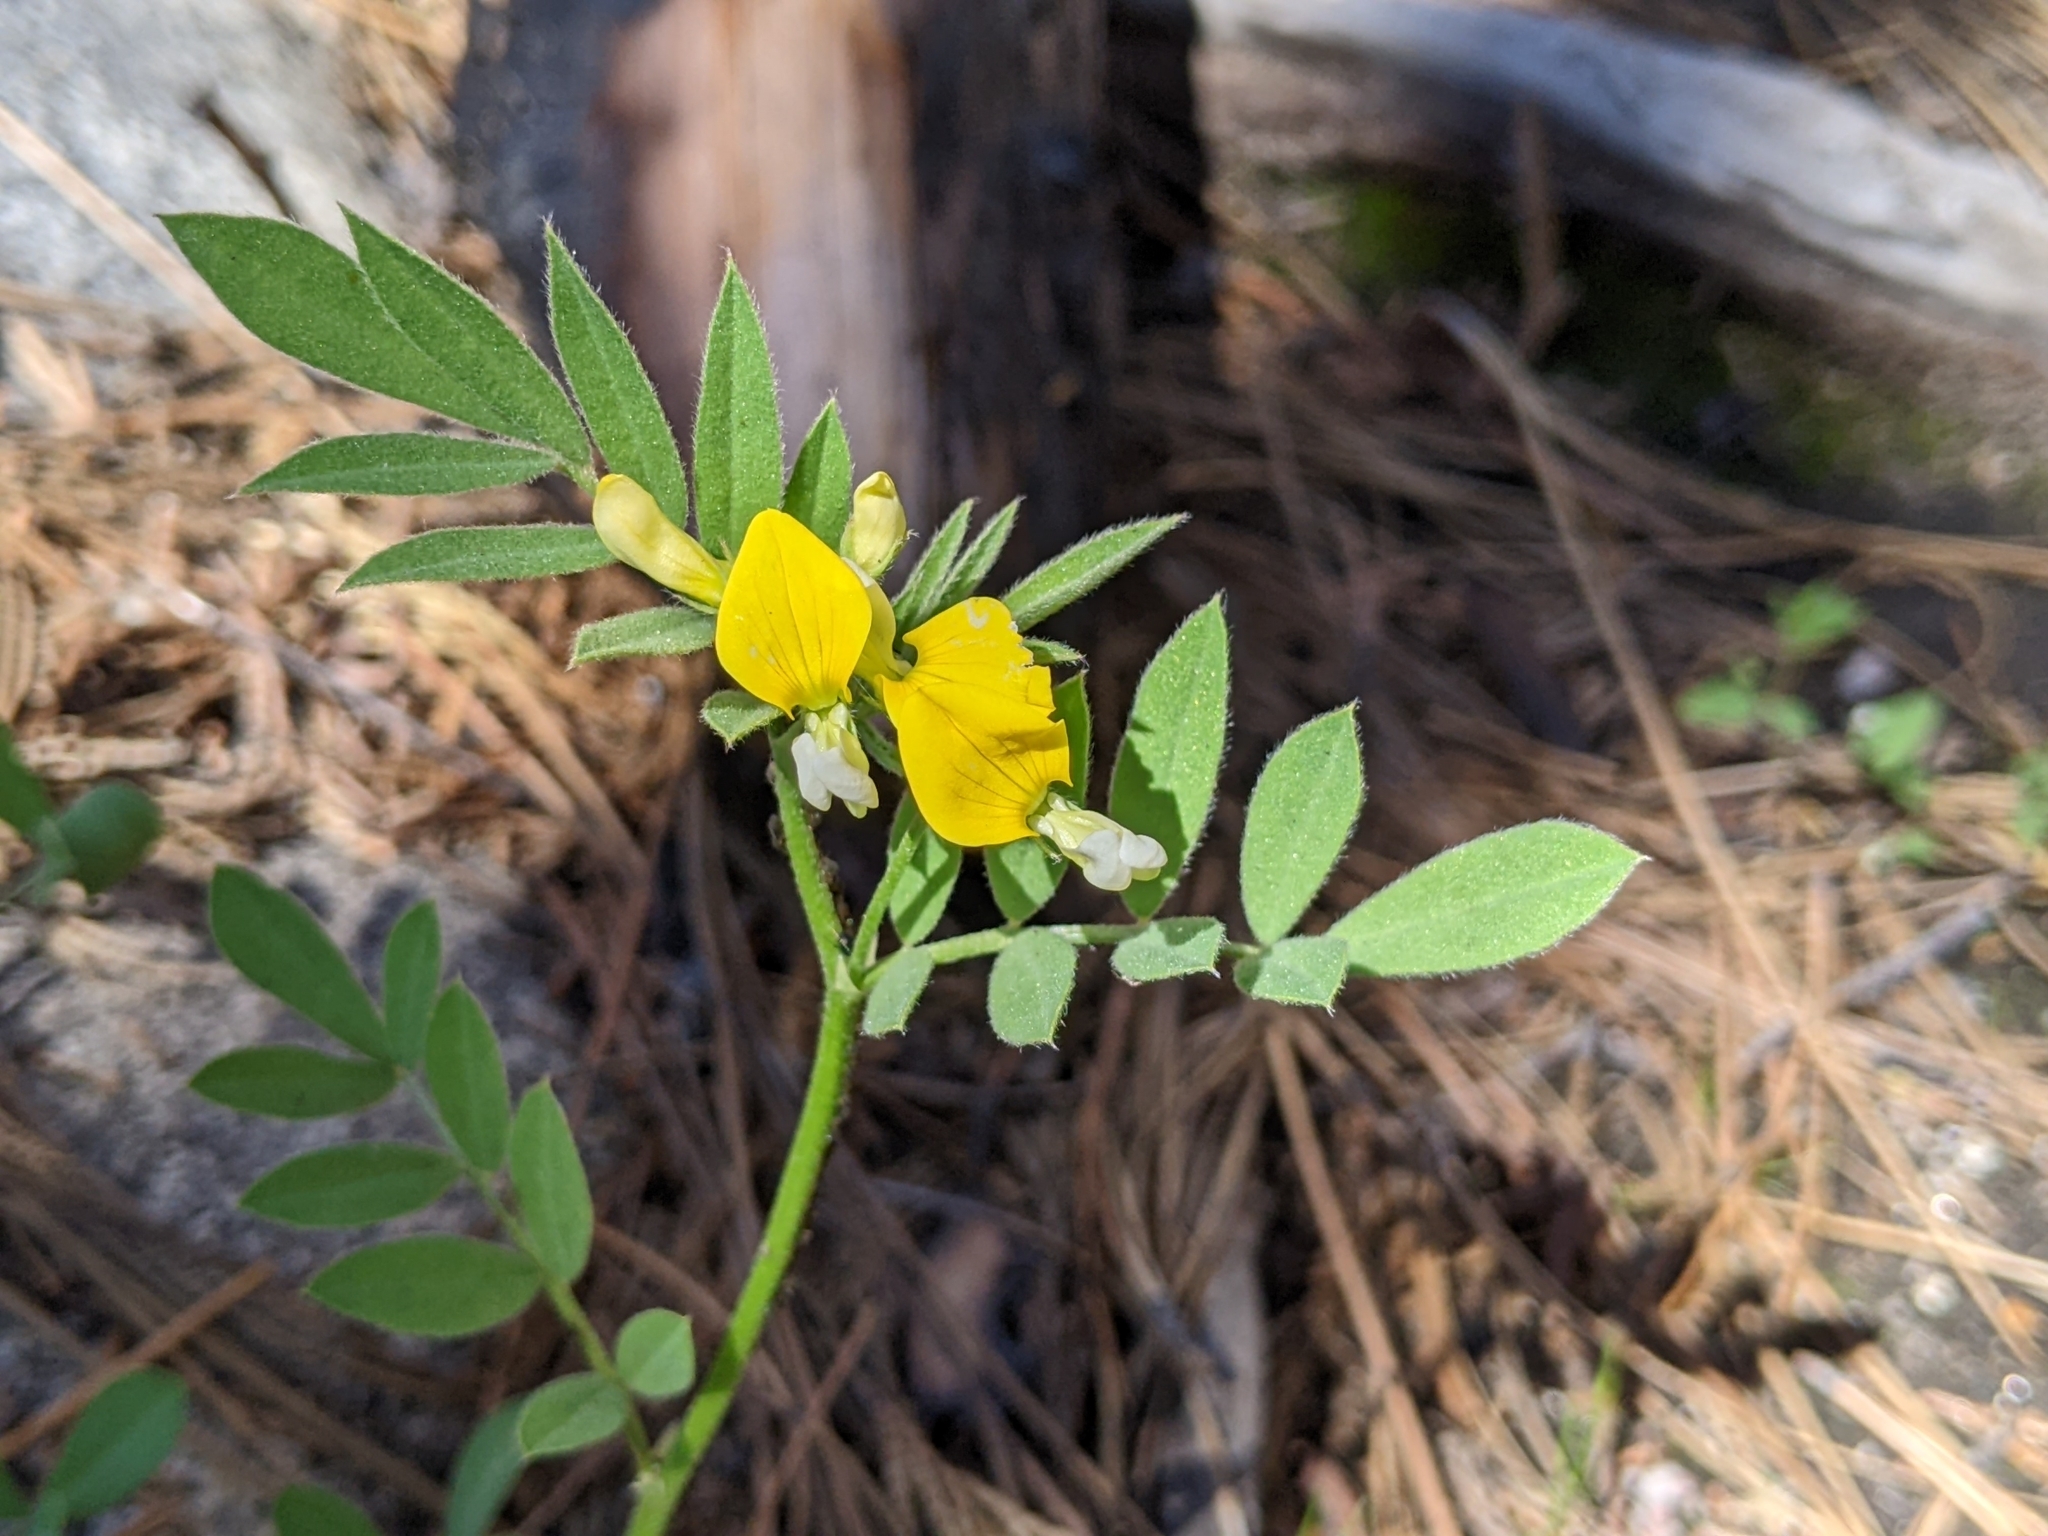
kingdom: Plantae
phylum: Tracheophyta
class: Magnoliopsida
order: Fabales
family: Fabaceae
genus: Hosackia
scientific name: Hosackia oblongifolia
